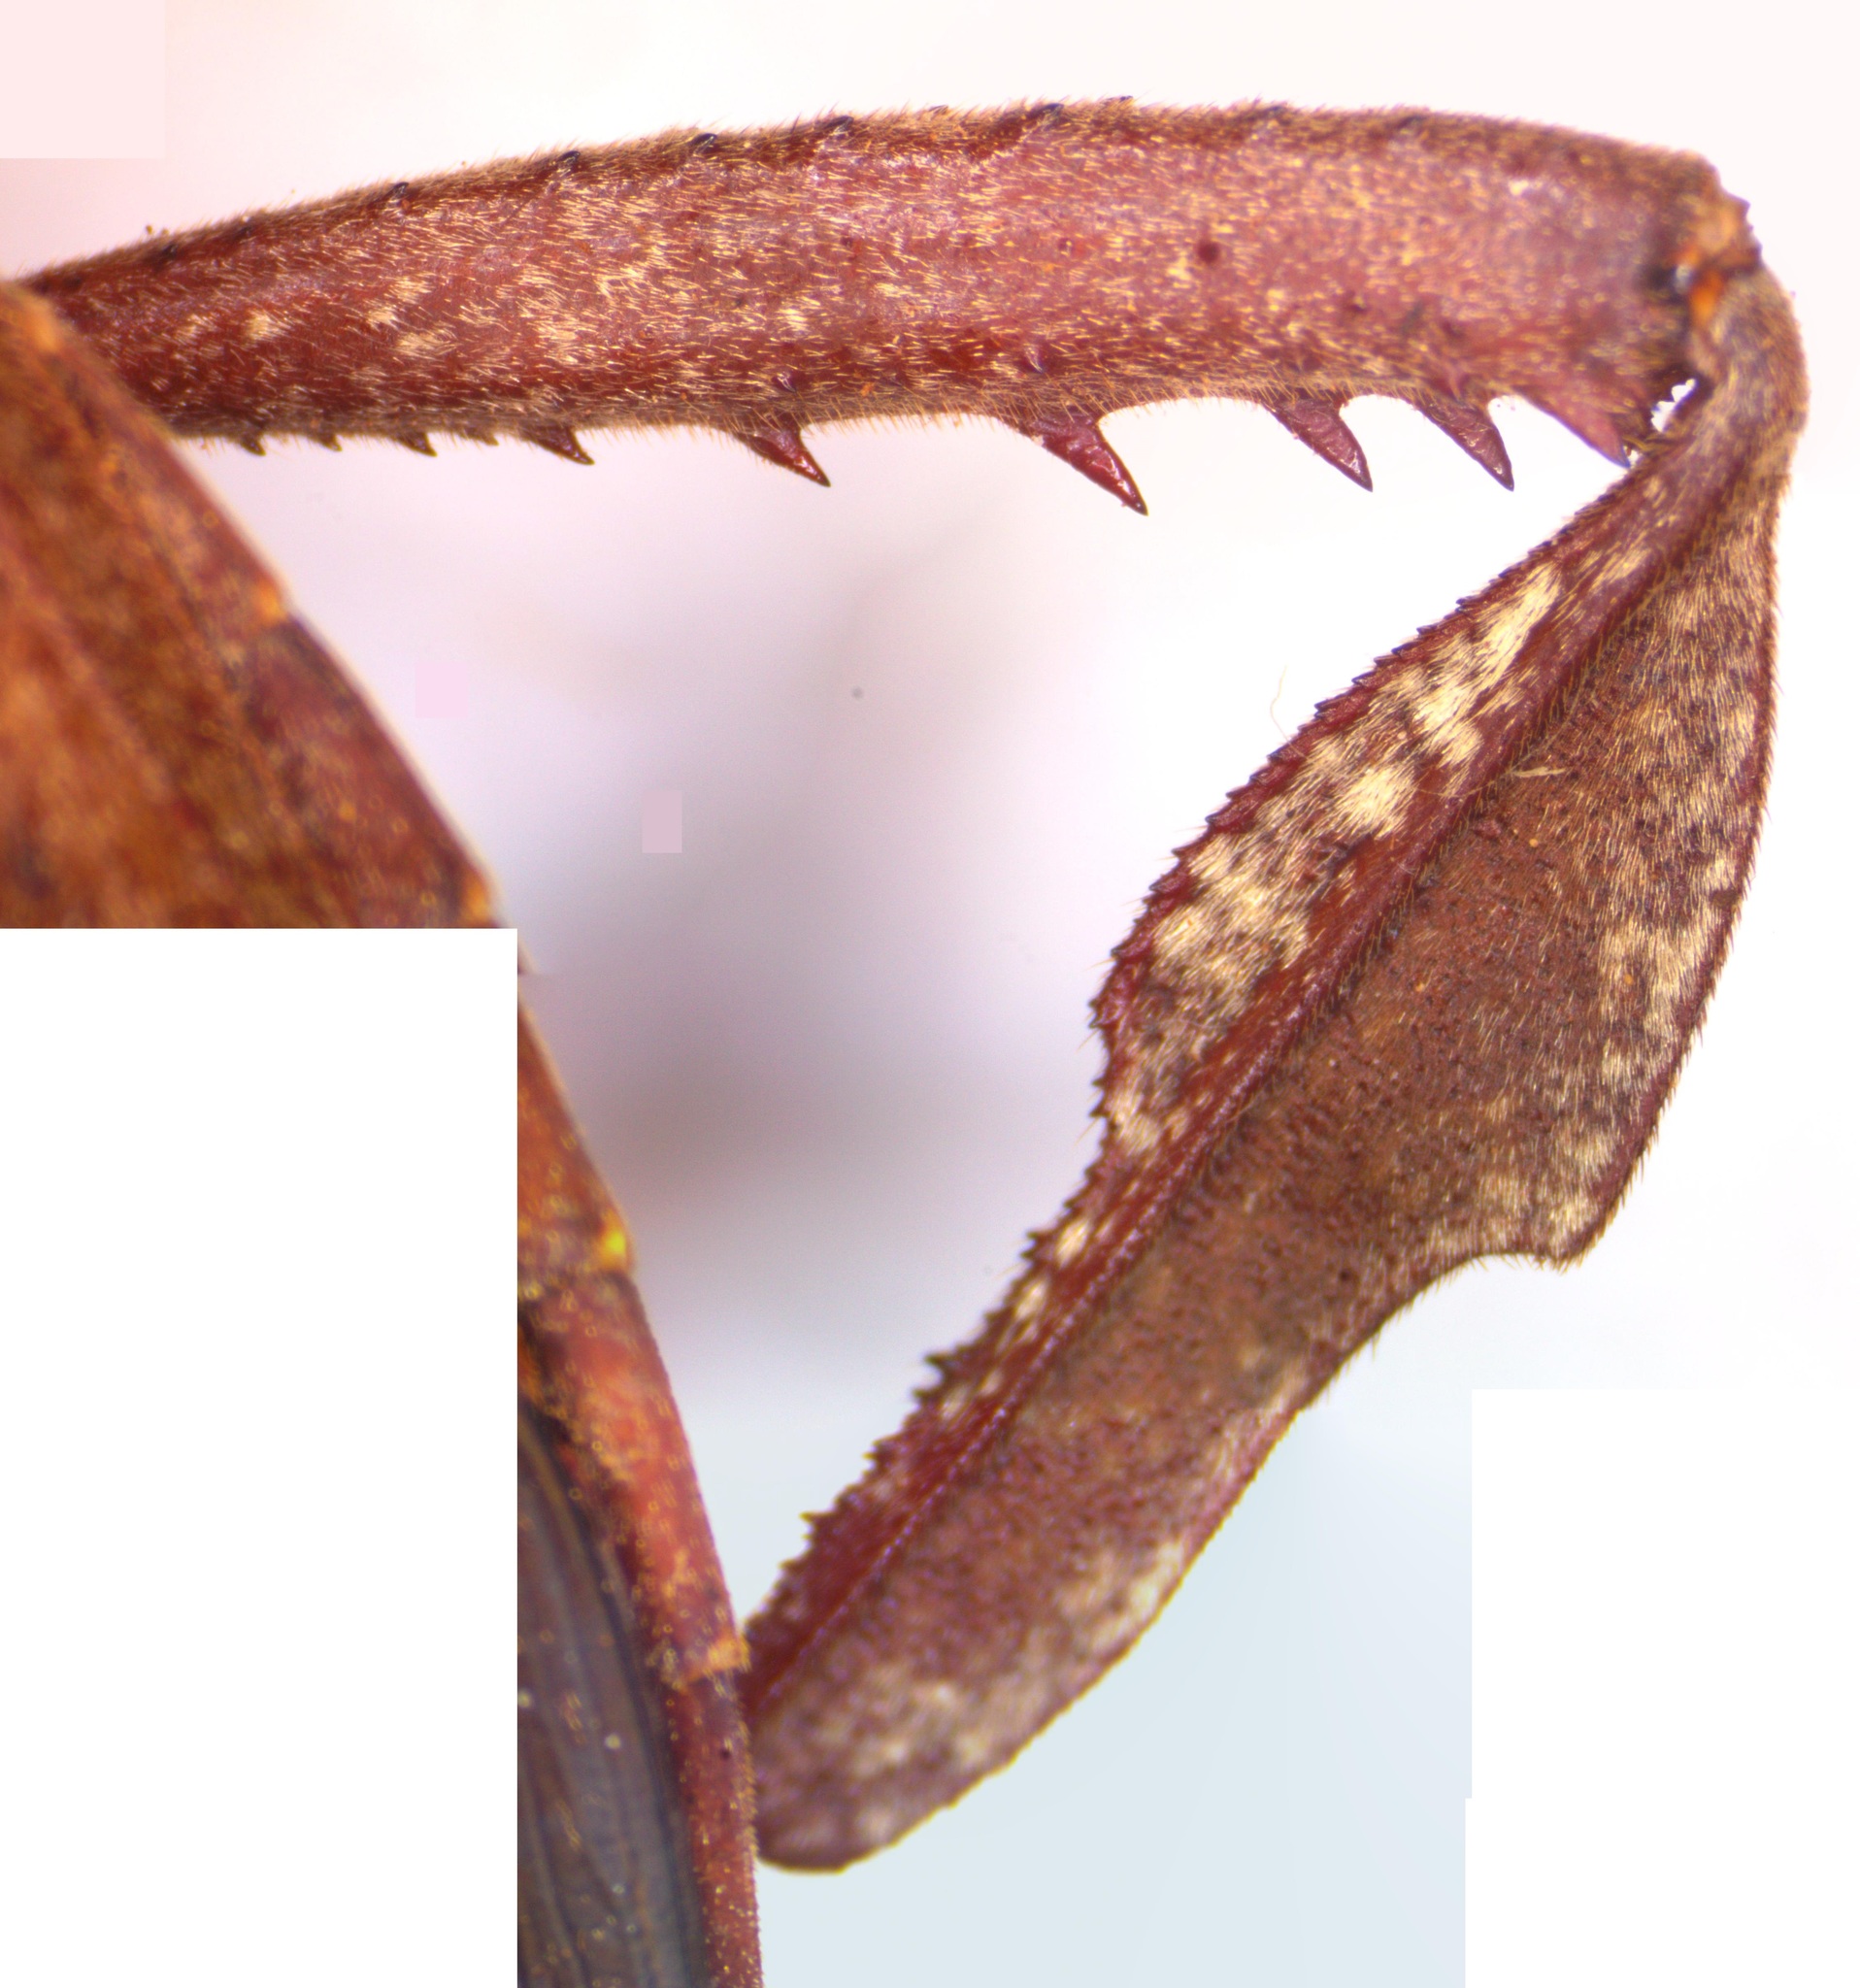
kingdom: Animalia
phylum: Arthropoda
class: Insecta
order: Hemiptera
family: Coreidae
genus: Acanthocephala
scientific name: Acanthocephala alata
